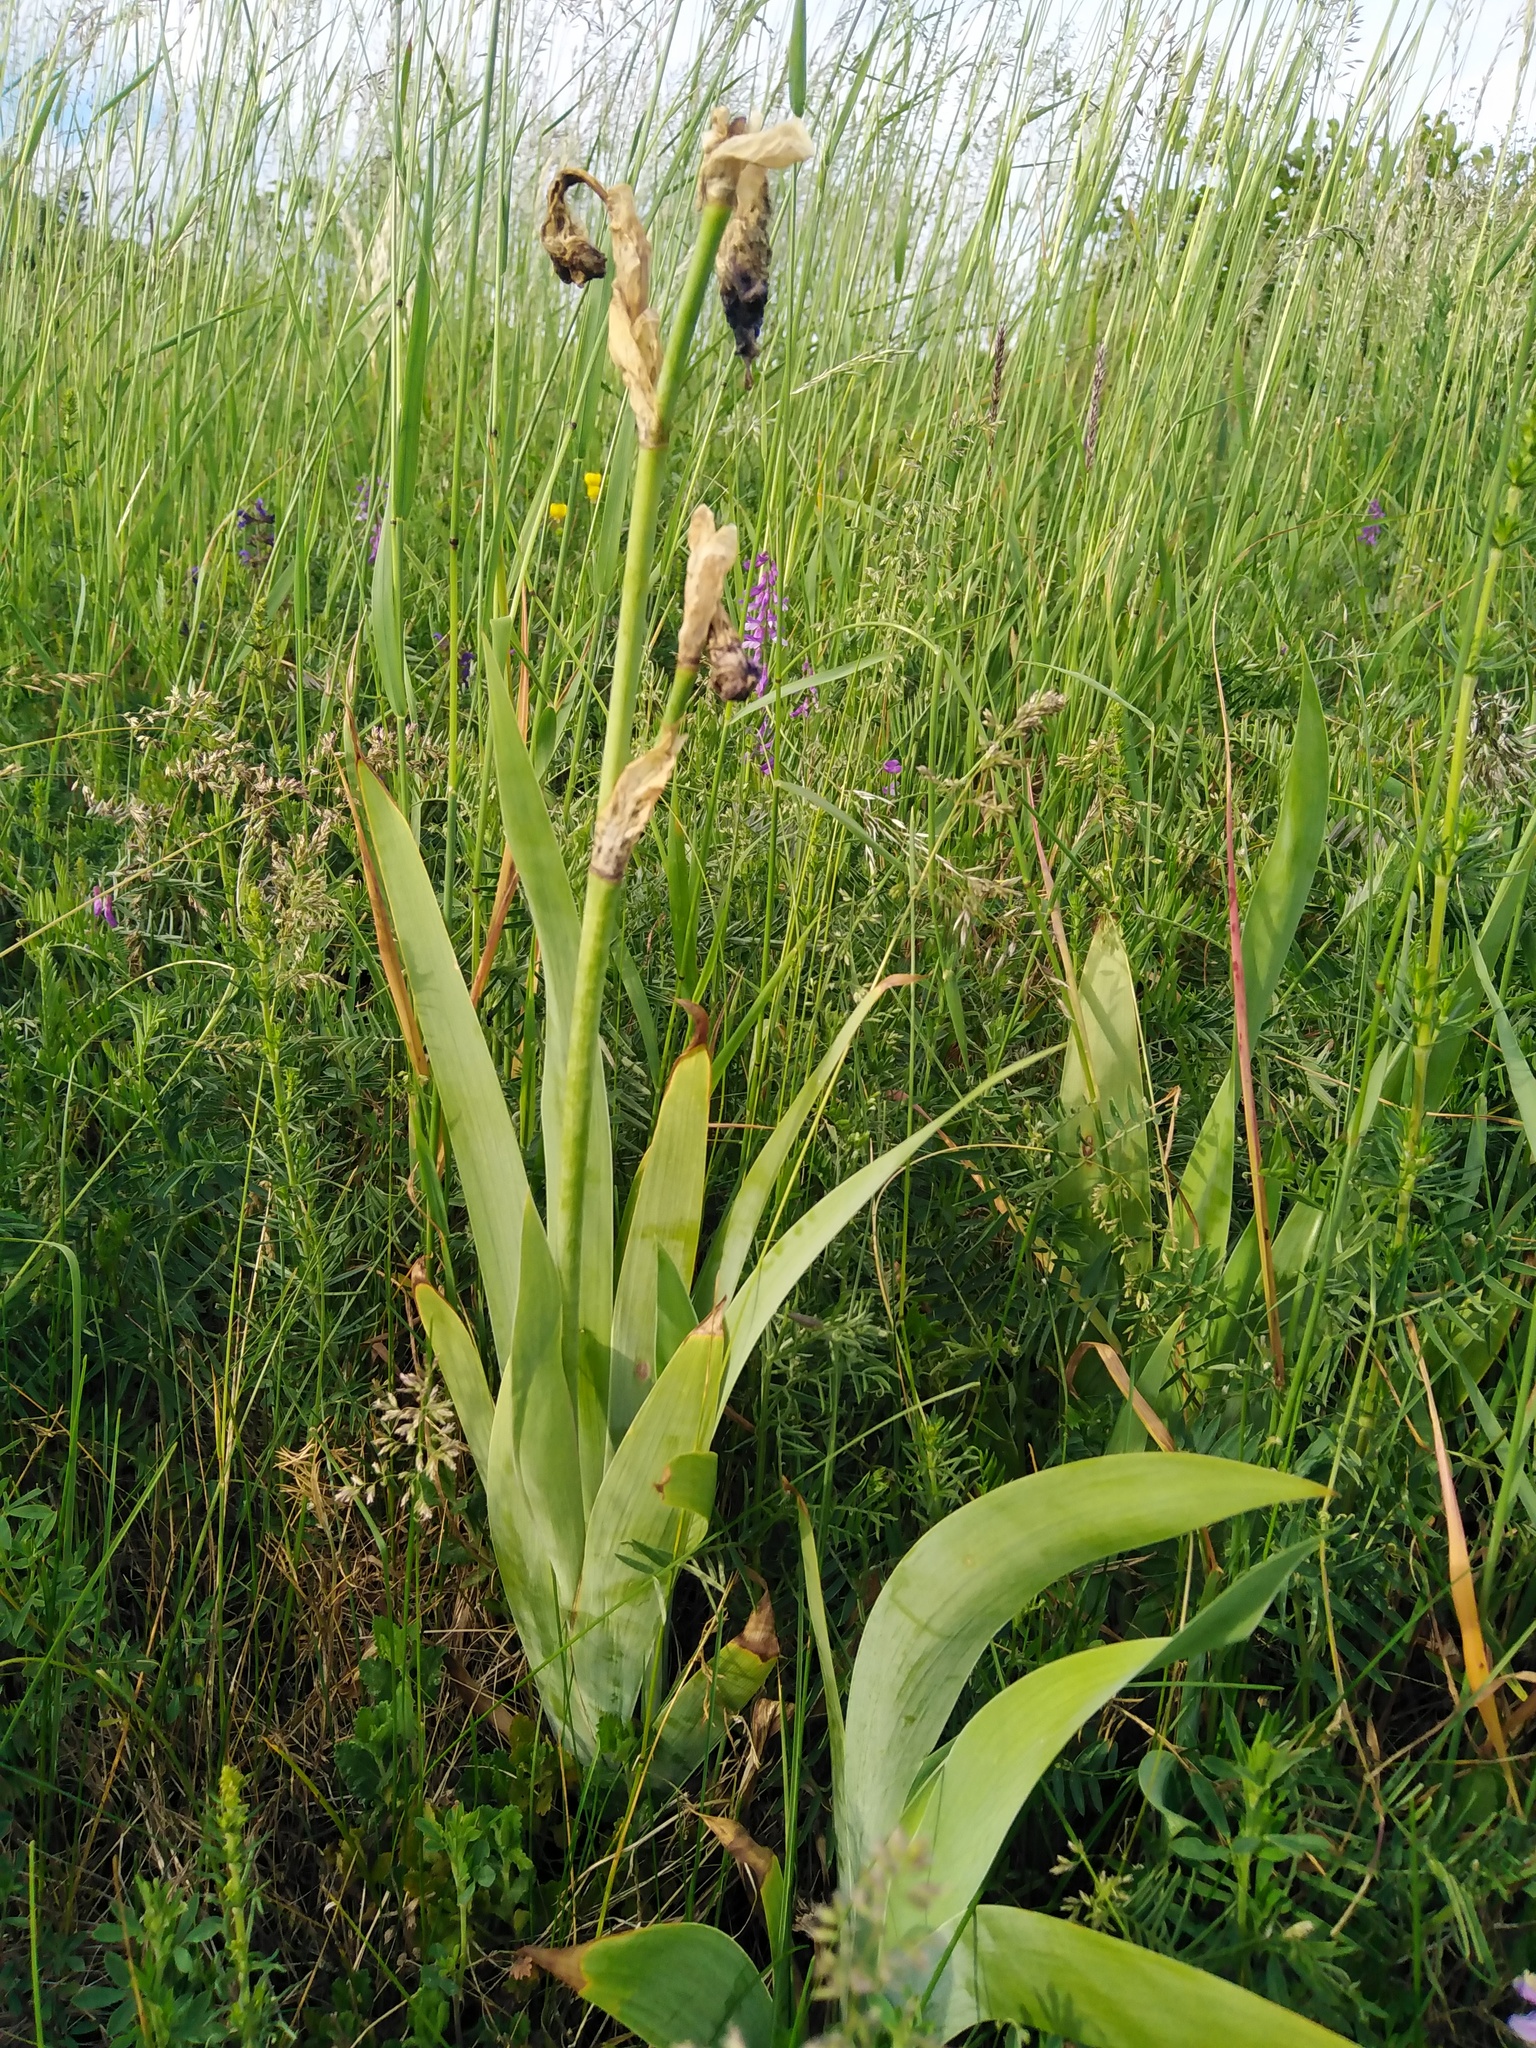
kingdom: Plantae
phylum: Tracheophyta
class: Liliopsida
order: Asparagales
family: Iridaceae
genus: Iris
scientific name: Iris germanica
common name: German iris
